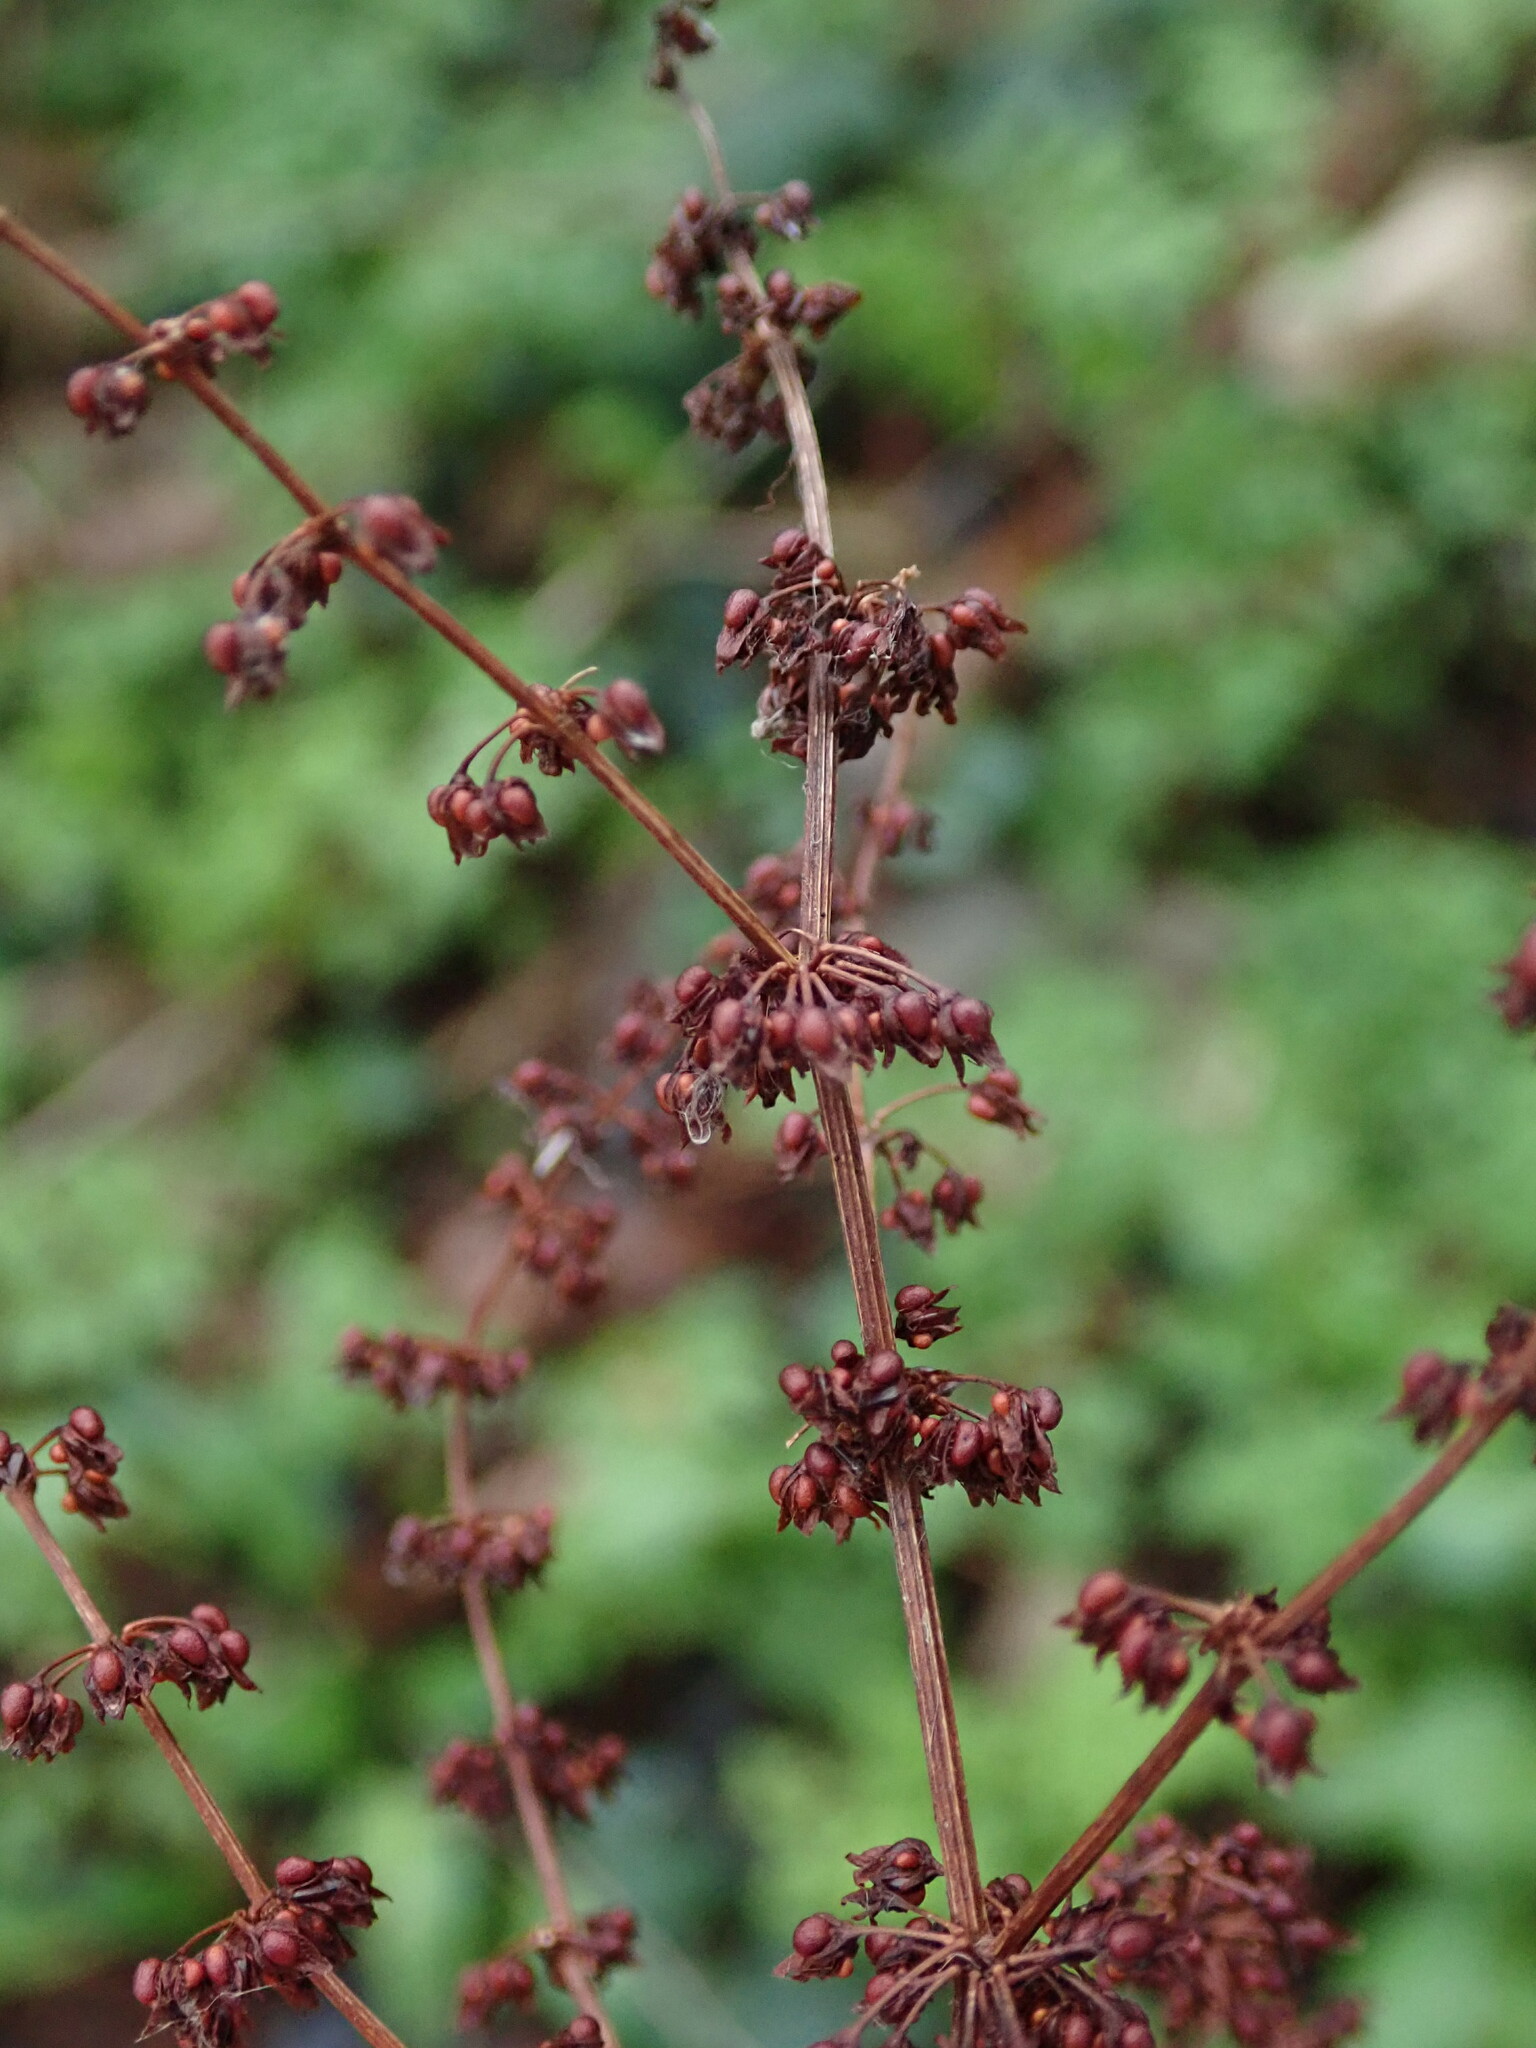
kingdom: Plantae
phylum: Tracheophyta
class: Magnoliopsida
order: Caryophyllales
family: Polygonaceae
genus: Rumex
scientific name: Rumex sanguineus
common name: Wood dock
